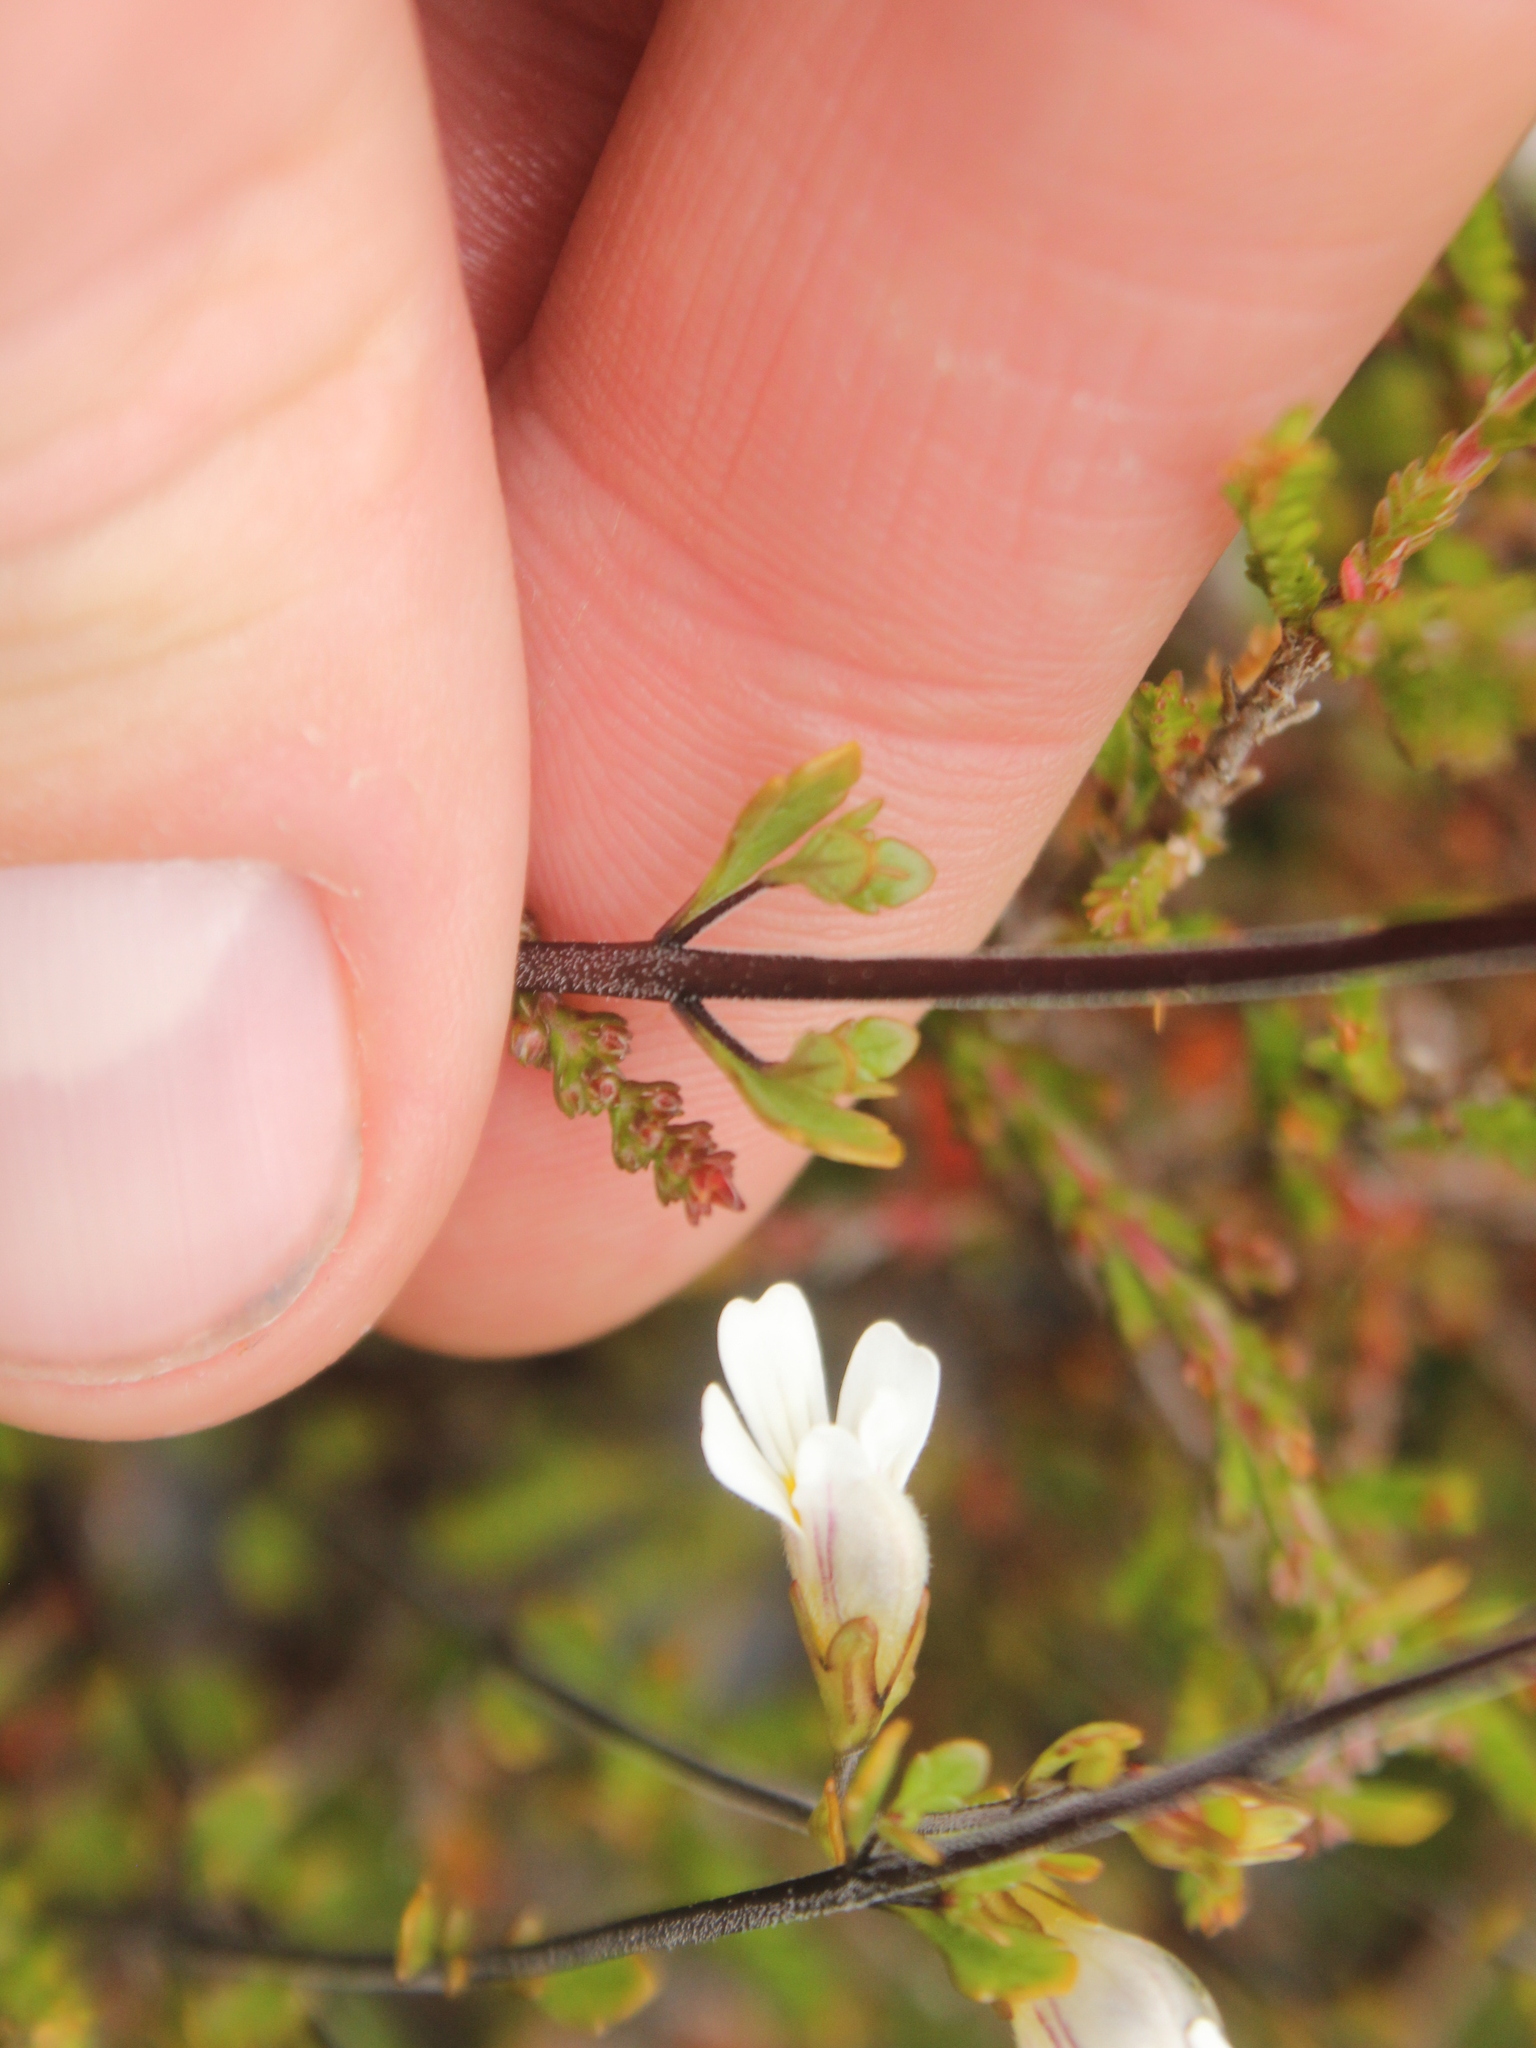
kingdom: Plantae
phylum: Tracheophyta
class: Magnoliopsida
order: Lamiales
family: Orobanchaceae
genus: Euphrasia
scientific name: Euphrasia cuneata
